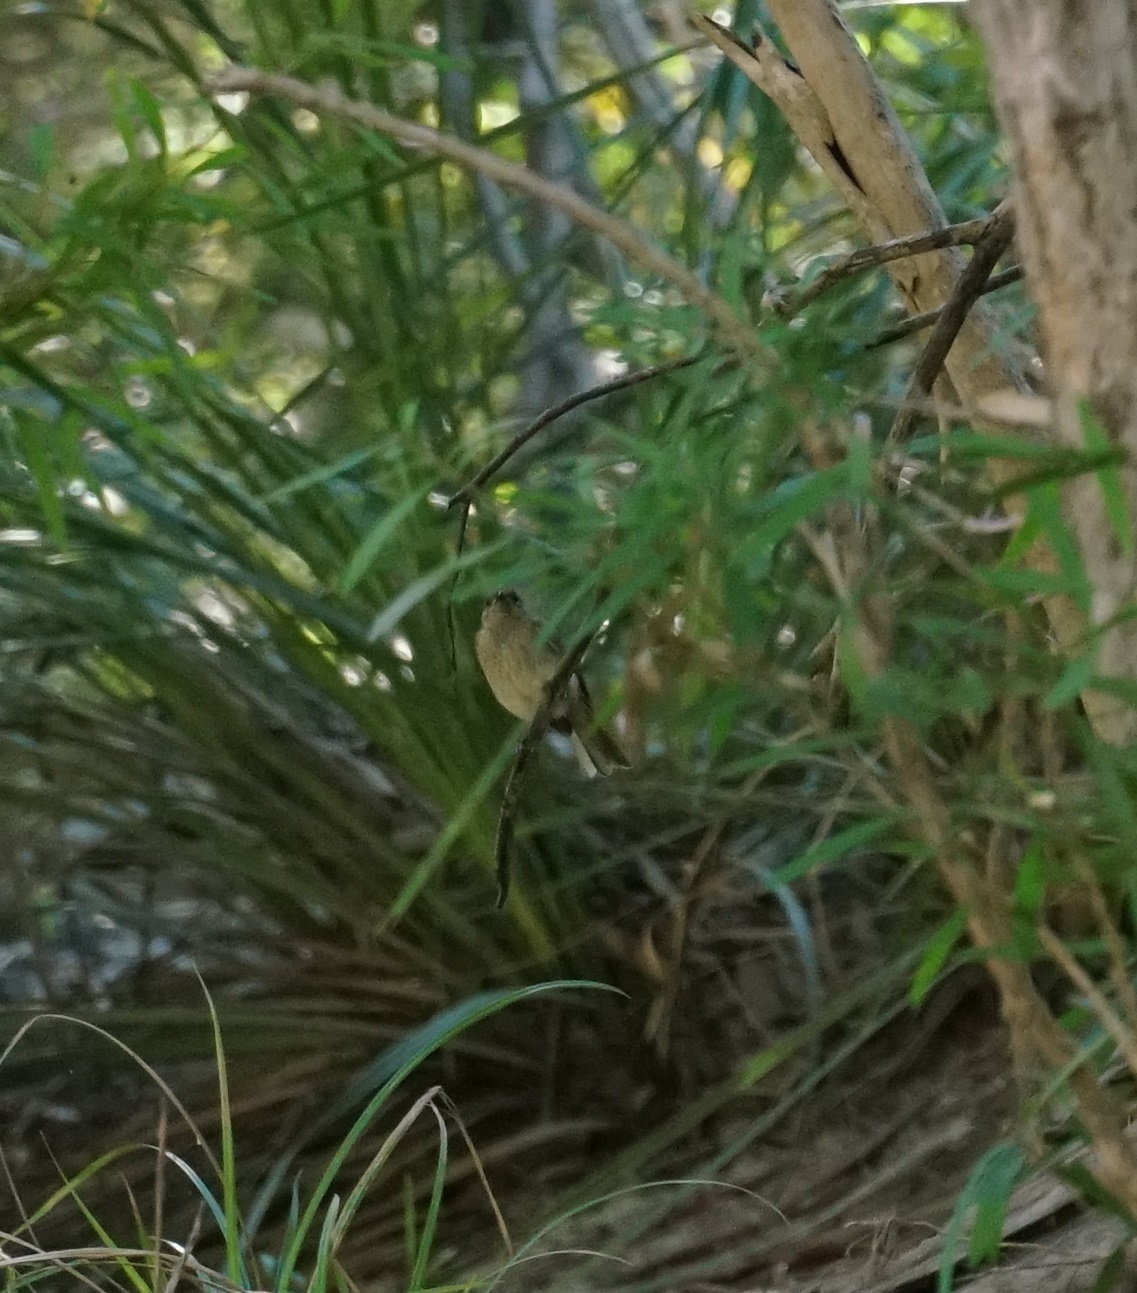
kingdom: Animalia
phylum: Chordata
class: Aves
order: Passeriformes
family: Meliphagidae
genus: Lichmera
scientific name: Lichmera indistincta
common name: Brown honeyeater
